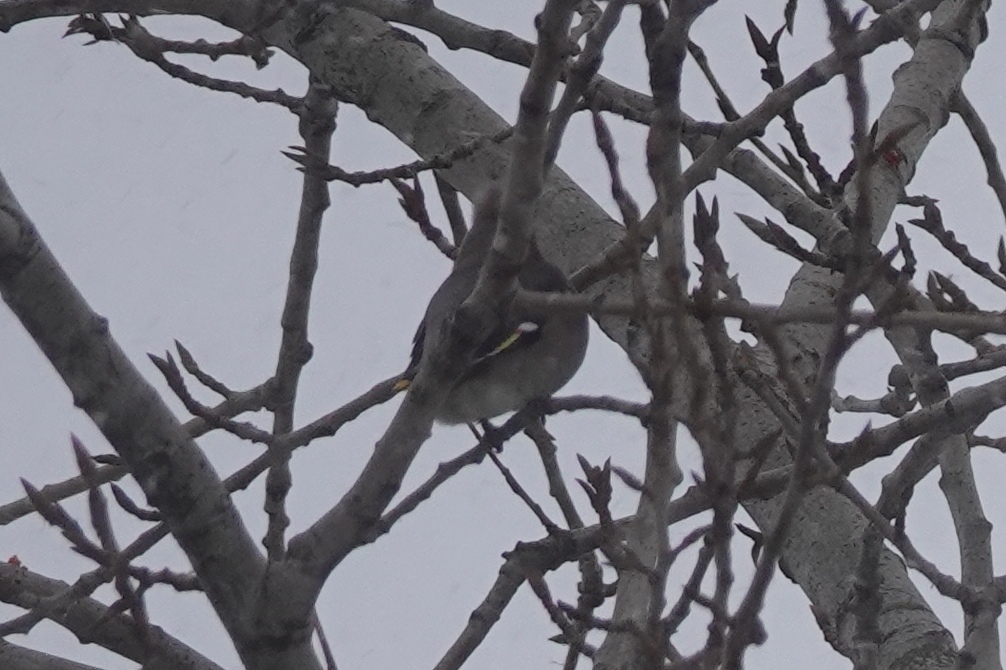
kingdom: Animalia
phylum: Chordata
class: Aves
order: Passeriformes
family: Bombycillidae
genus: Bombycilla
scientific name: Bombycilla garrulus
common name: Bohemian waxwing
